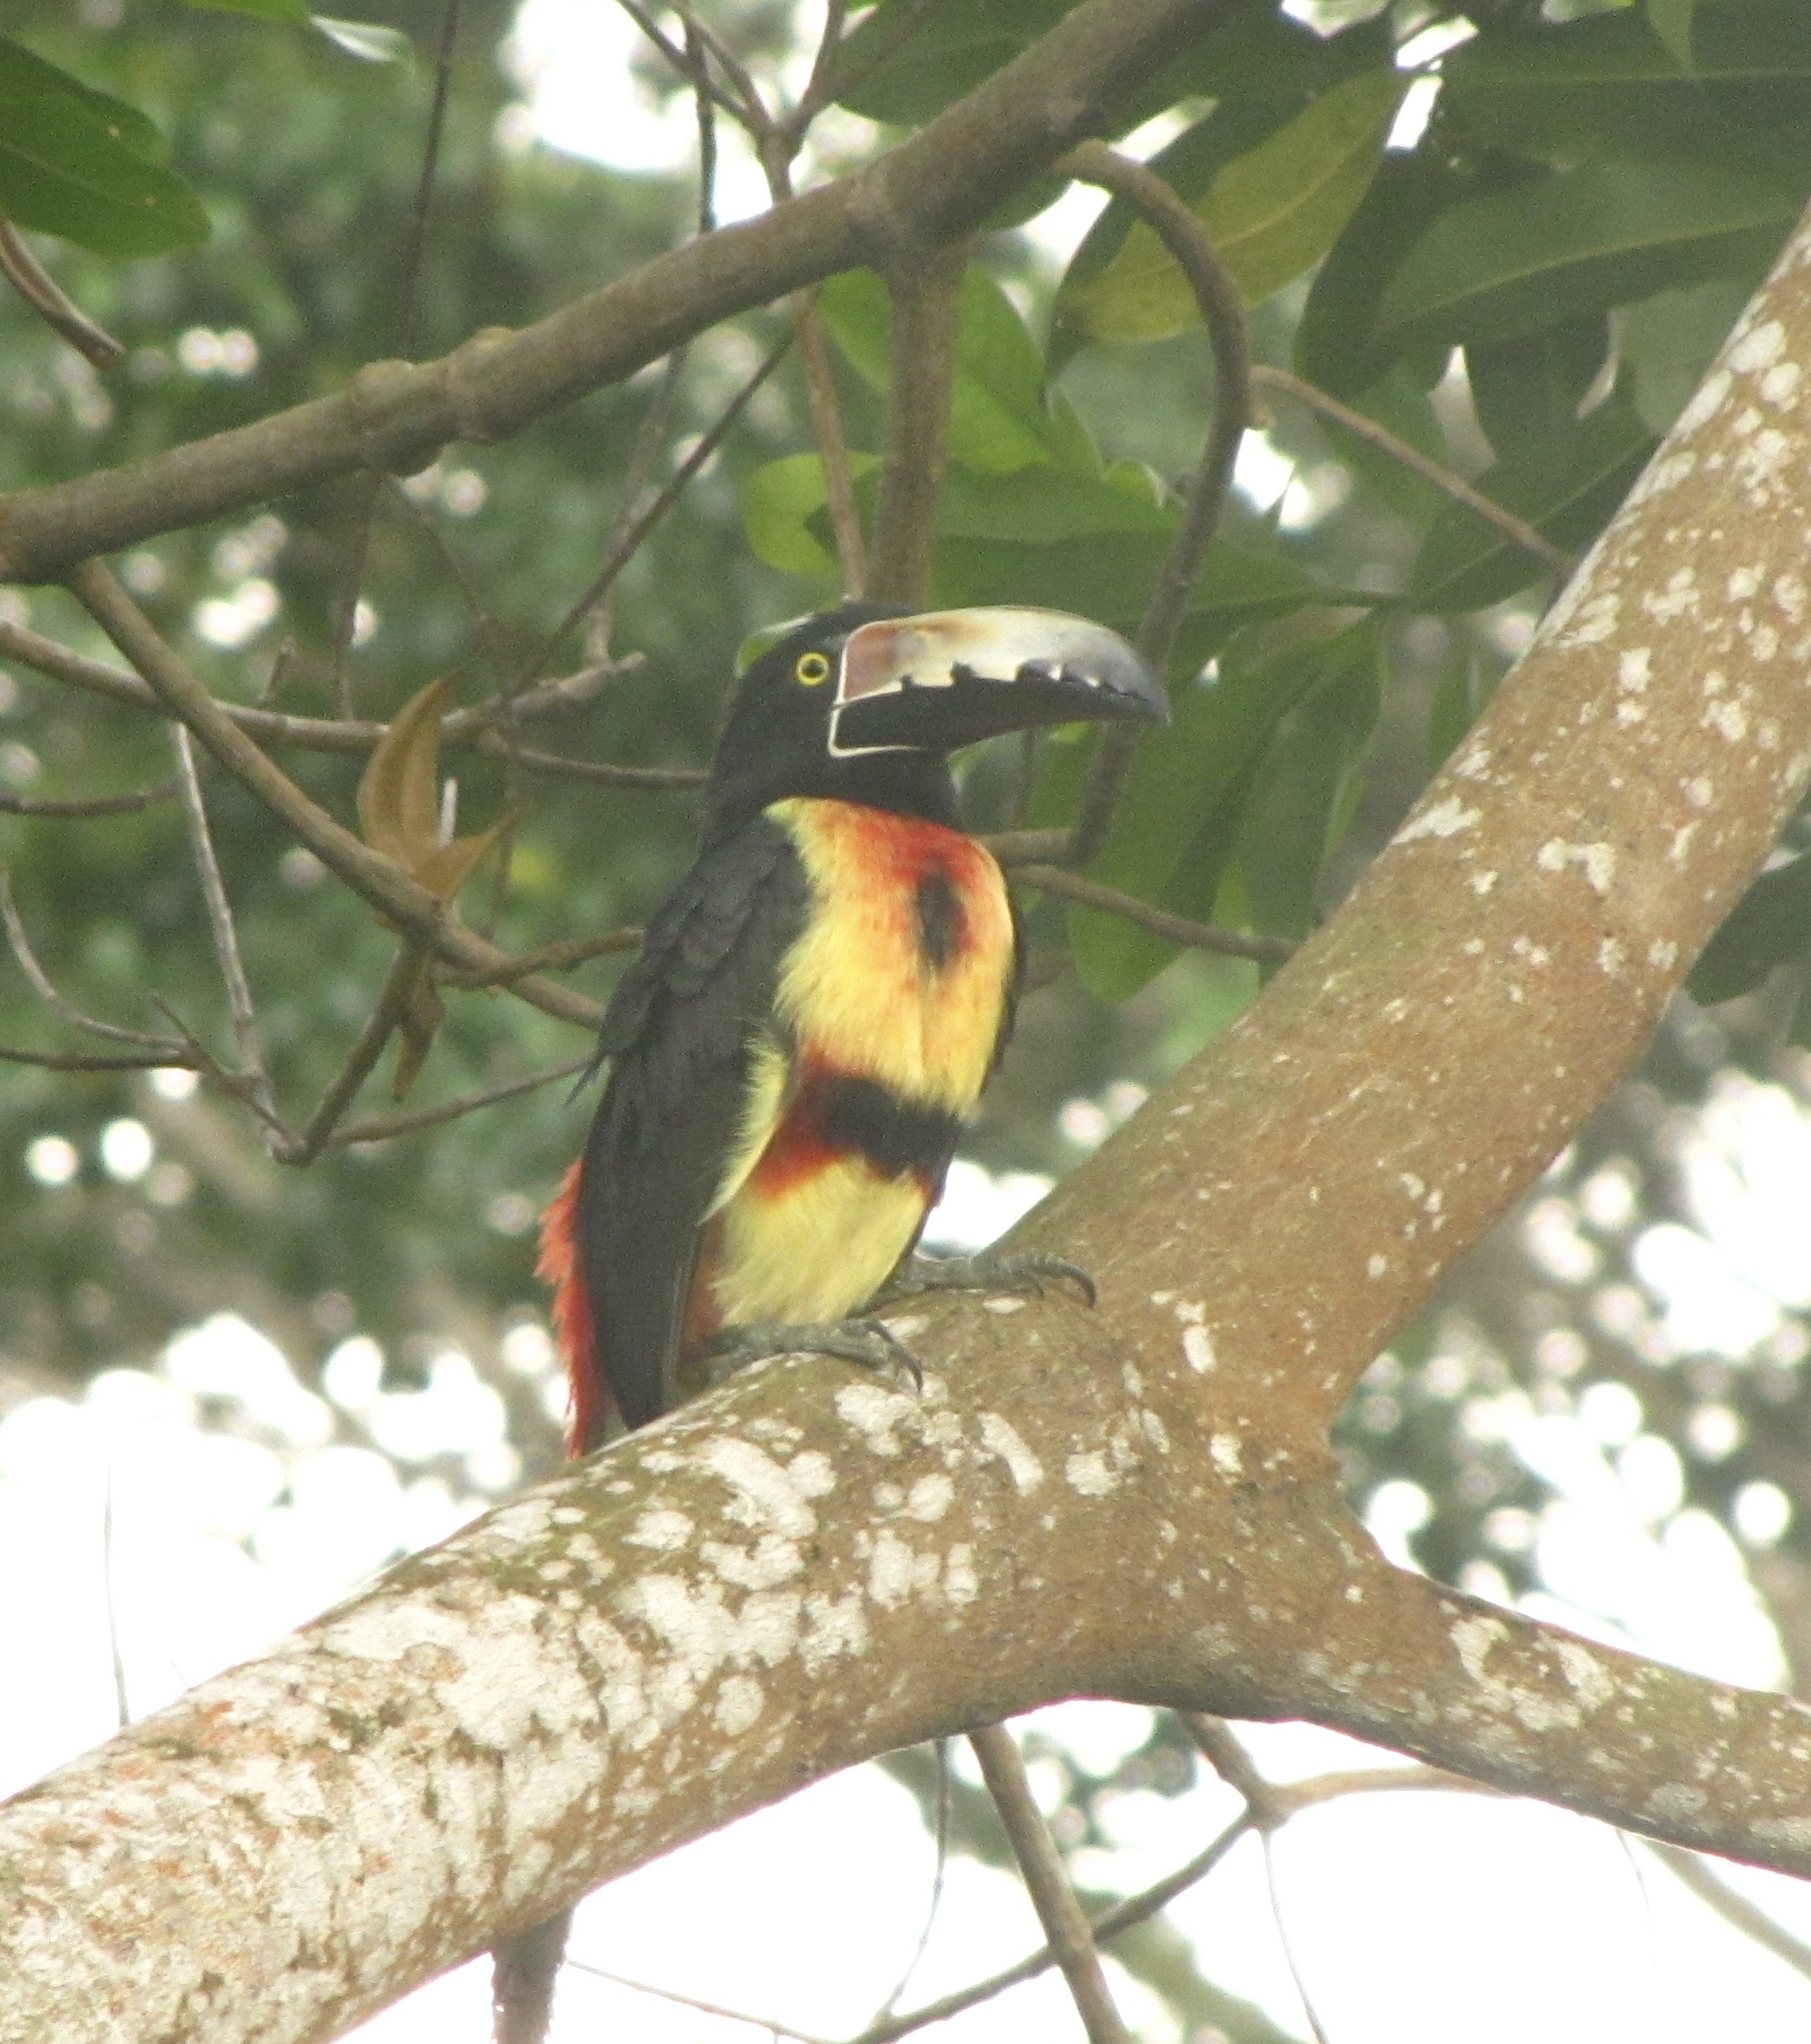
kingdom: Animalia
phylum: Chordata
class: Aves
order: Piciformes
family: Ramphastidae
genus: Pteroglossus
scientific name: Pteroglossus torquatus
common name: Collared aracari
